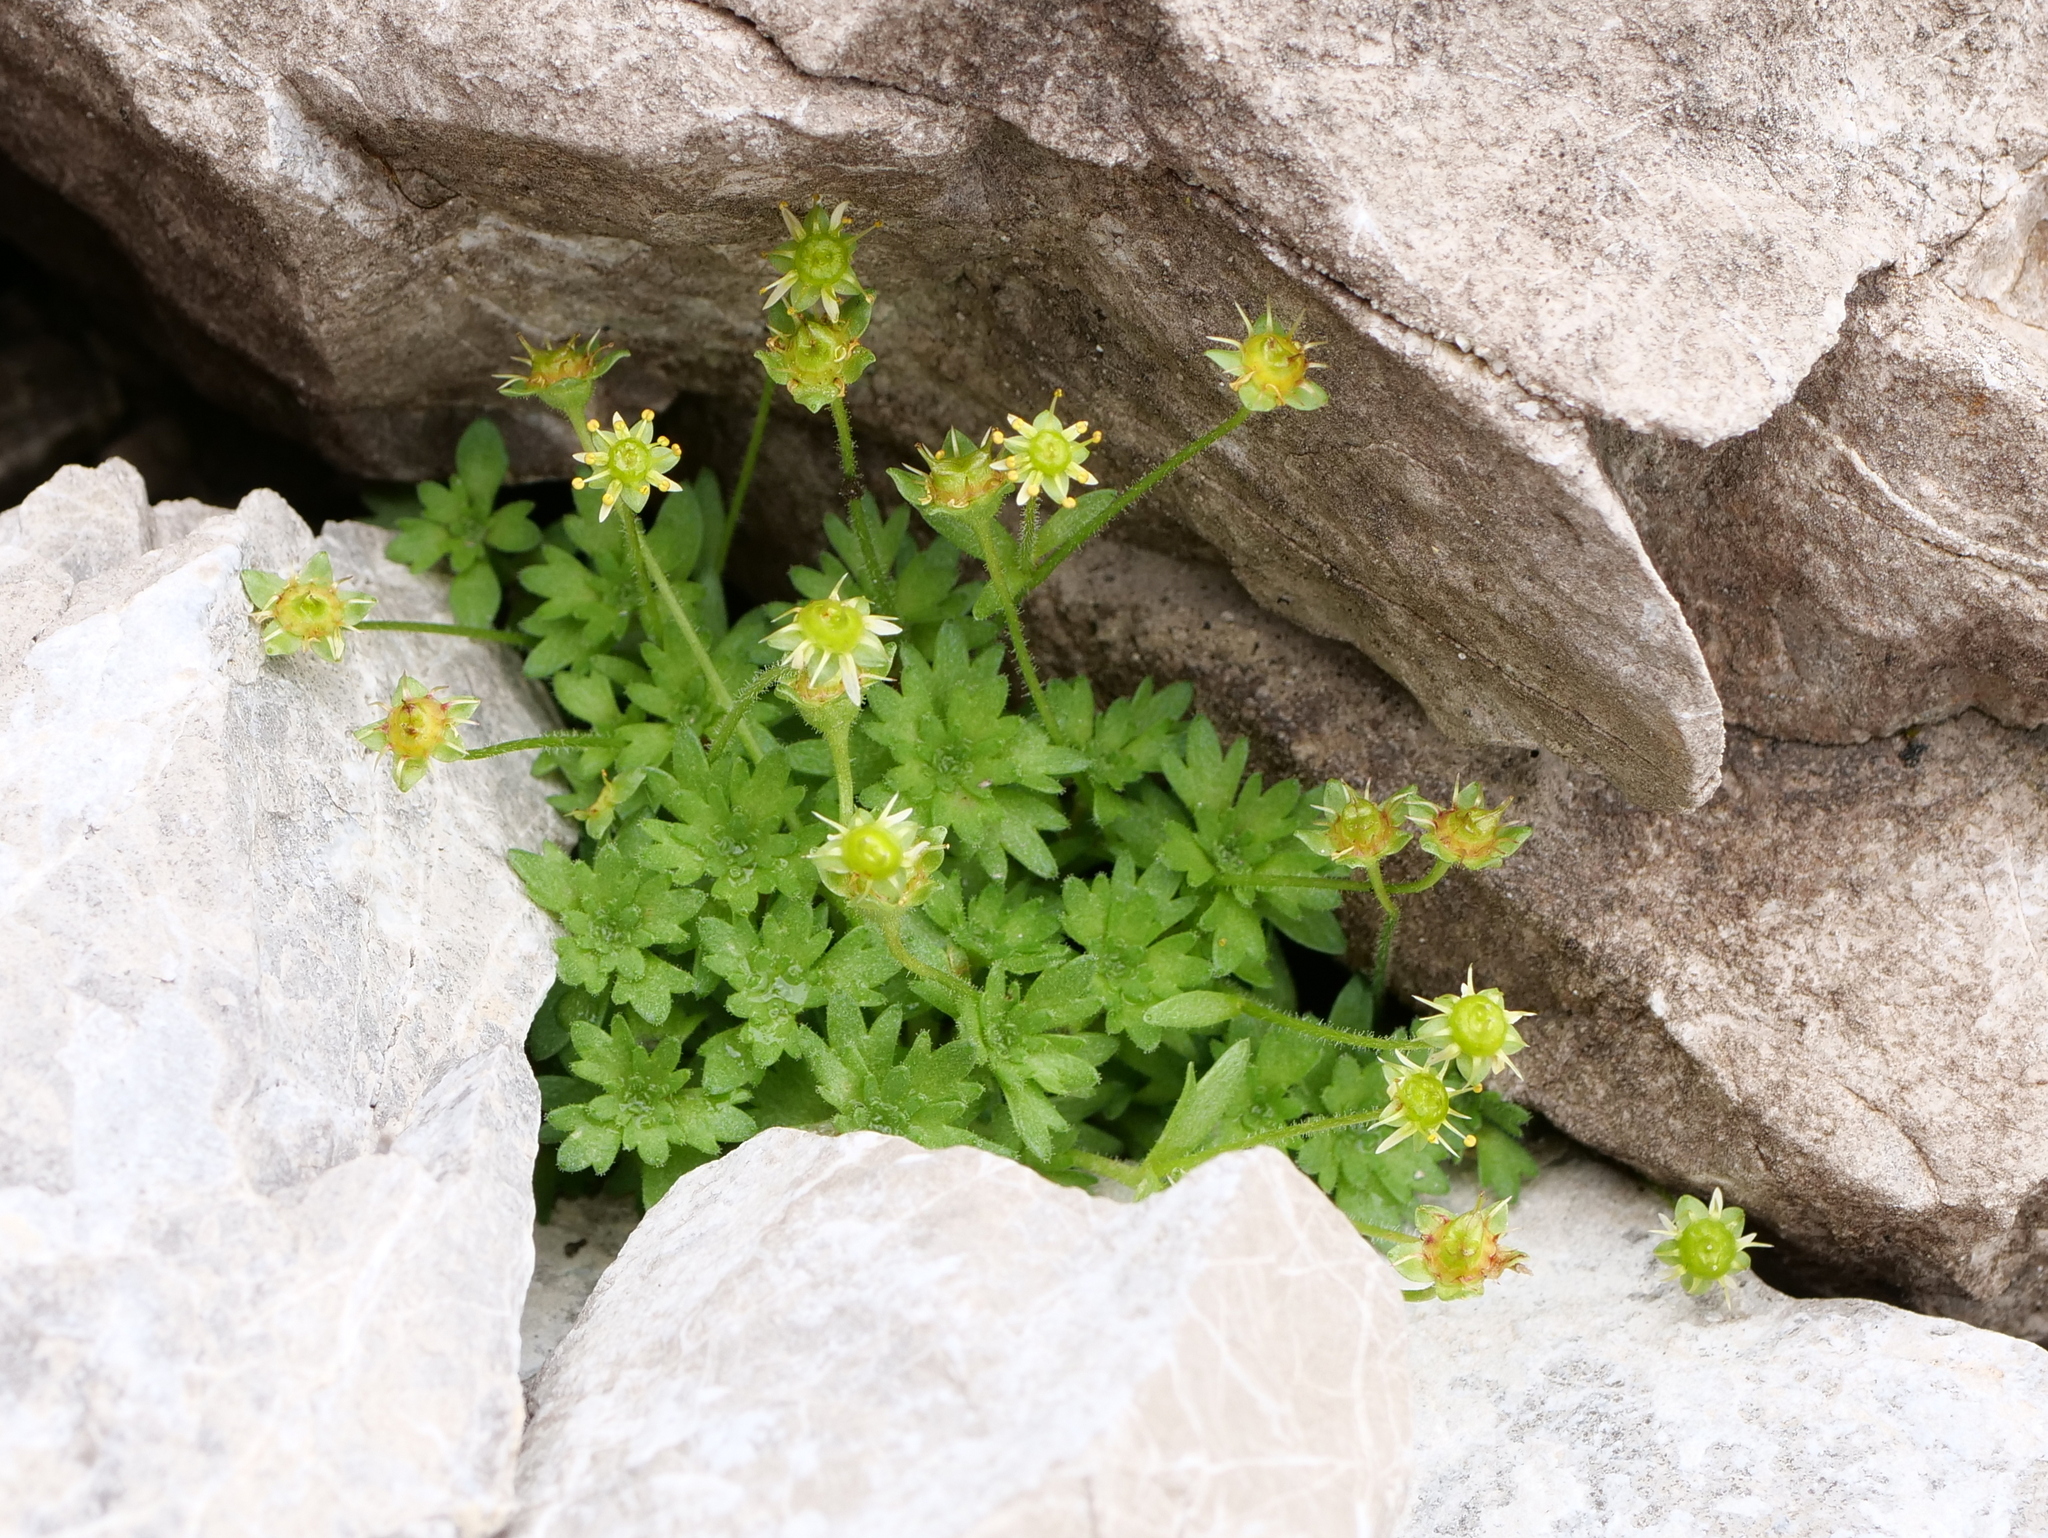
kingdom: Plantae
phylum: Tracheophyta
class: Magnoliopsida
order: Saxifragales
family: Saxifragaceae
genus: Saxifraga
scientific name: Saxifraga aphylla
